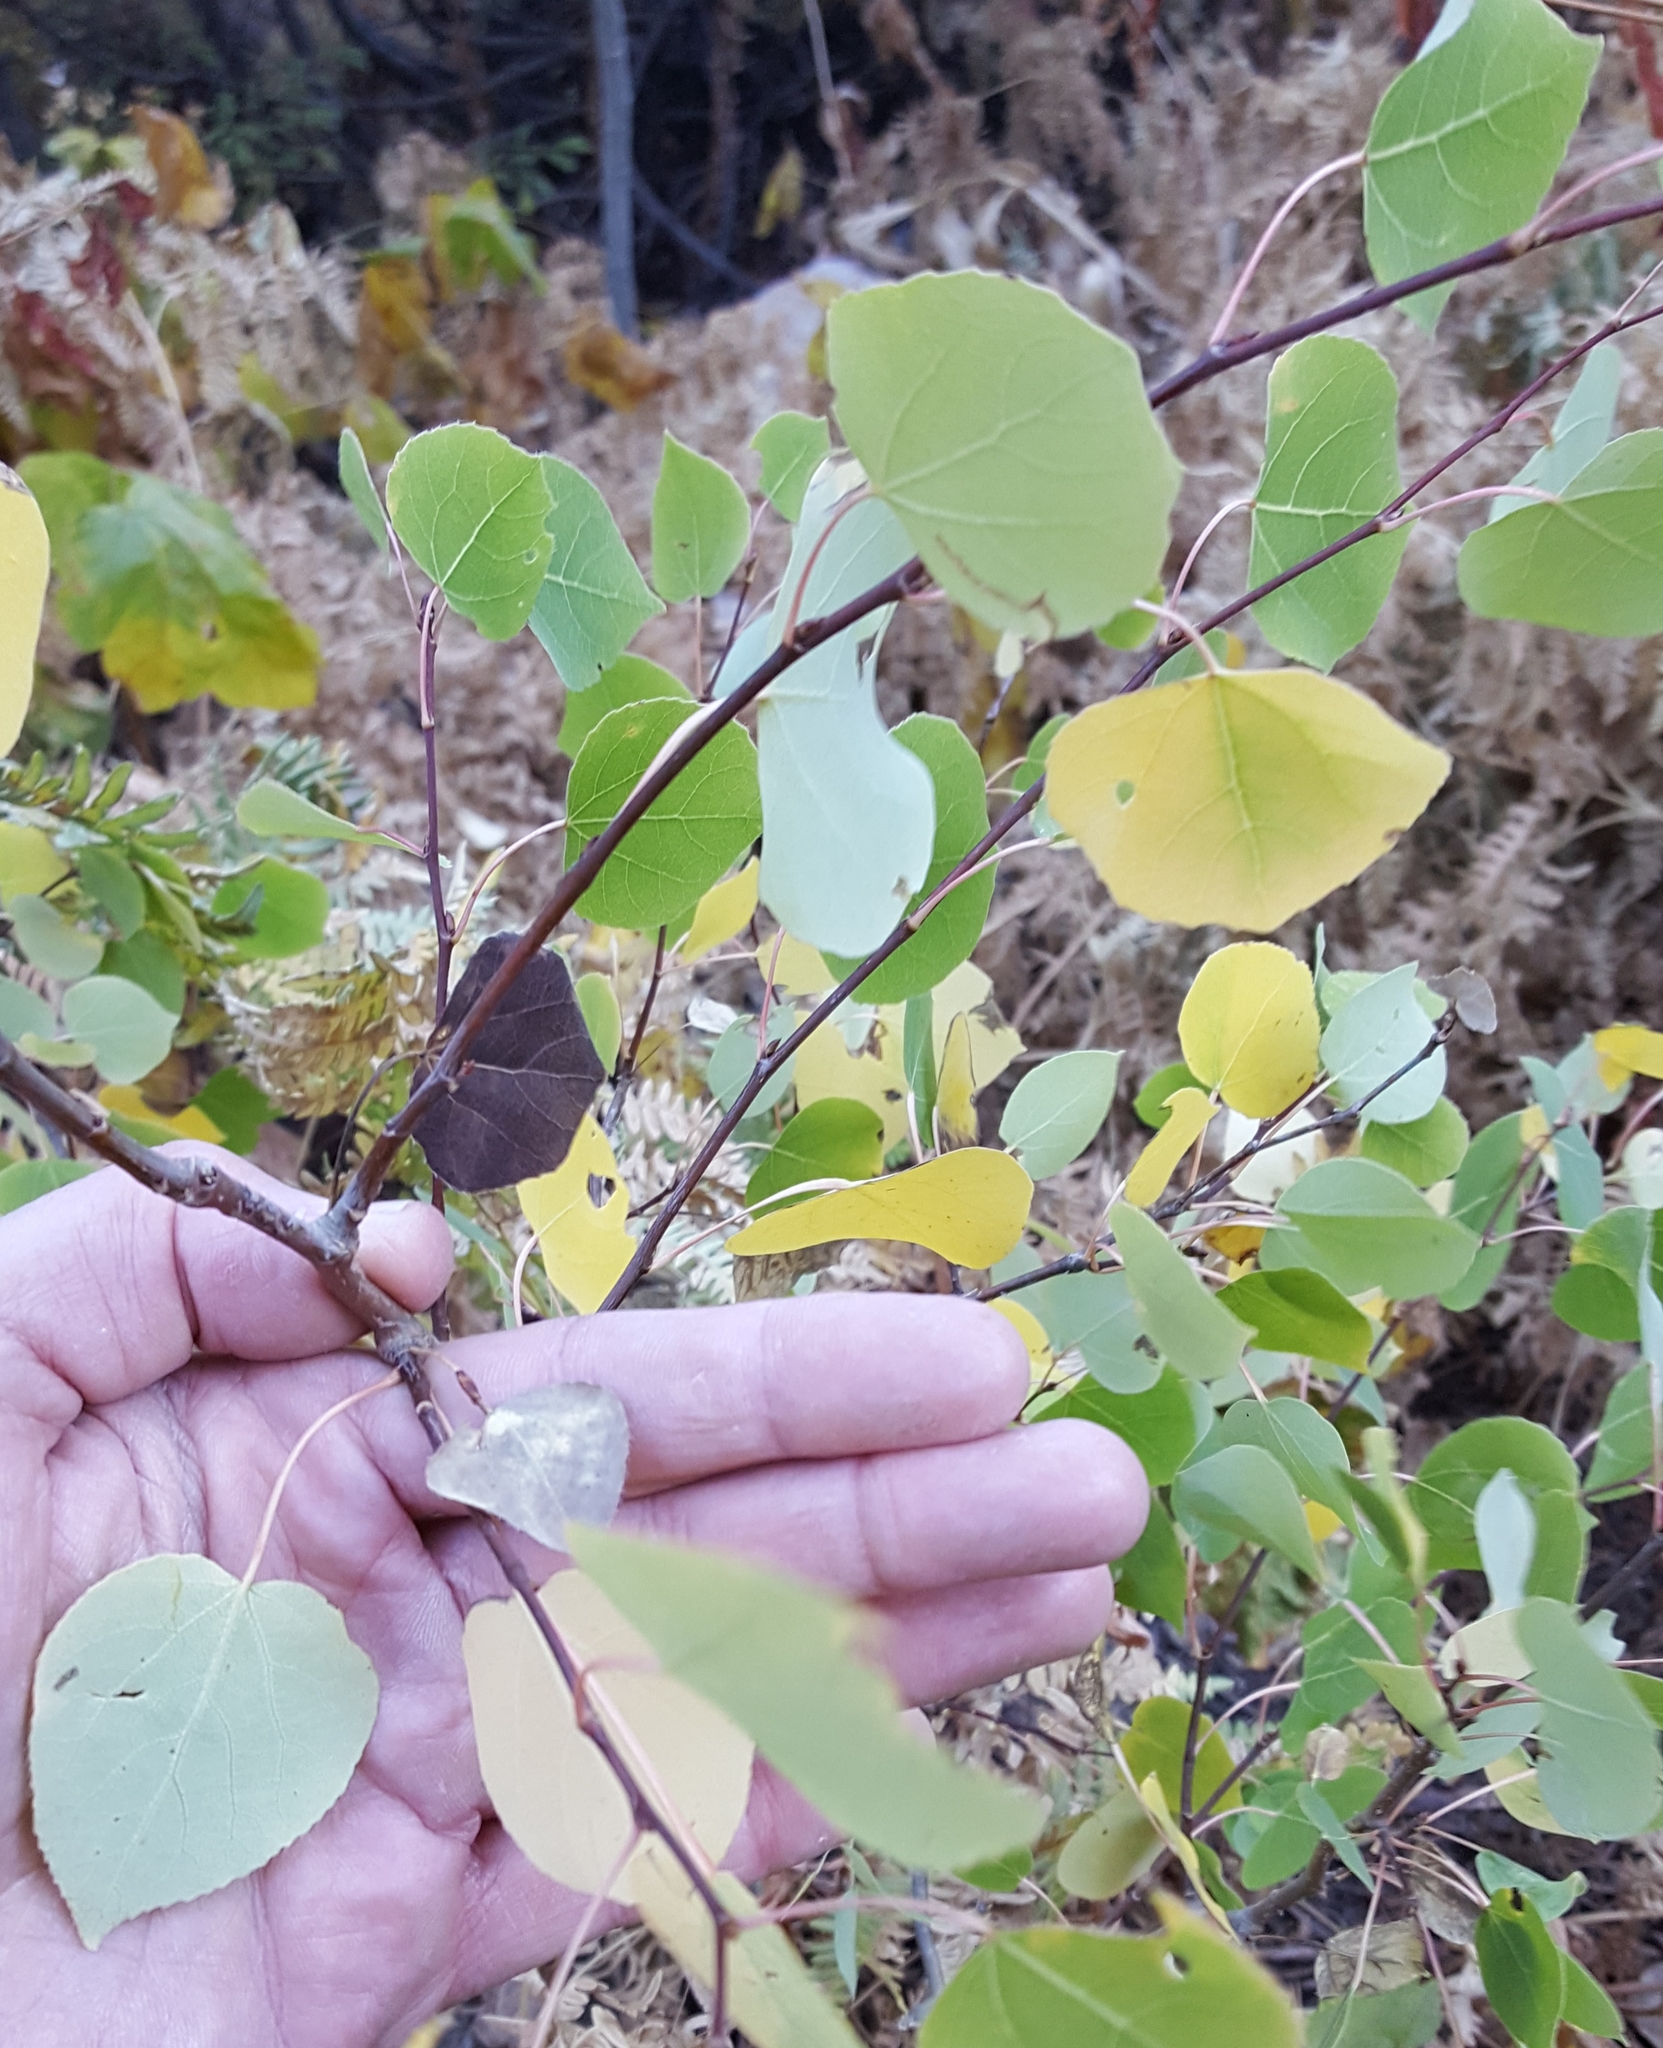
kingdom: Plantae
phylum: Tracheophyta
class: Magnoliopsida
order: Malpighiales
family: Salicaceae
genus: Populus
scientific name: Populus tremuloides
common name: Quaking aspen
